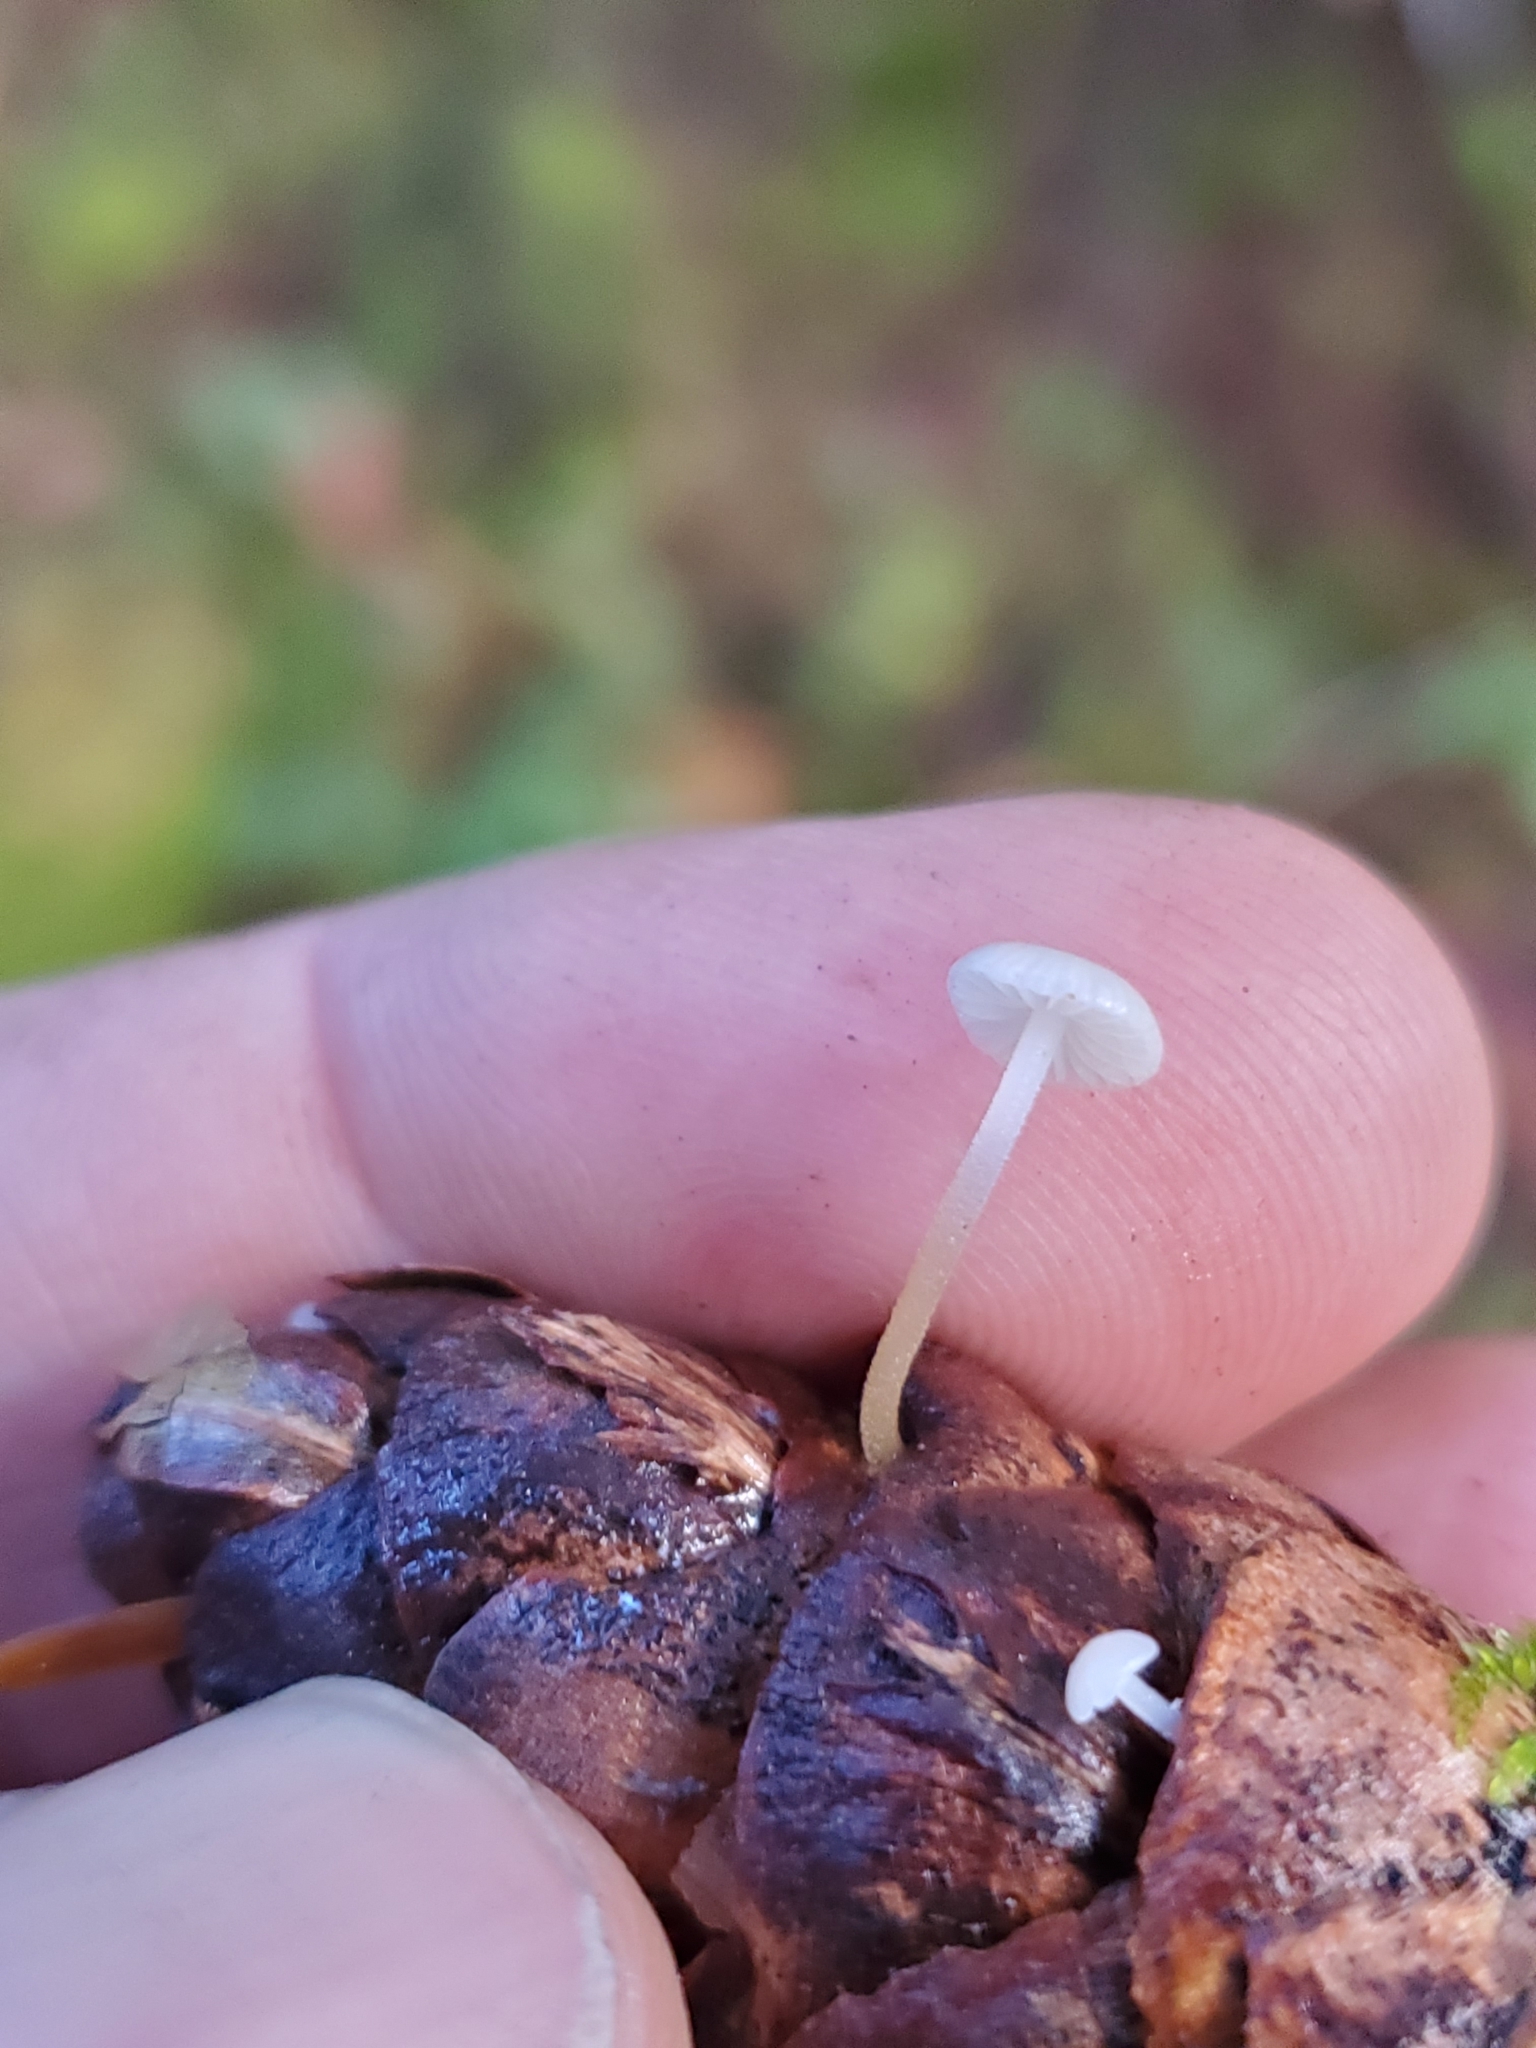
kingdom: Fungi
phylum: Basidiomycota
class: Agaricomycetes
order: Agaricales
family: Physalacriaceae
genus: Strobilurus
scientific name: Strobilurus trullisatus
